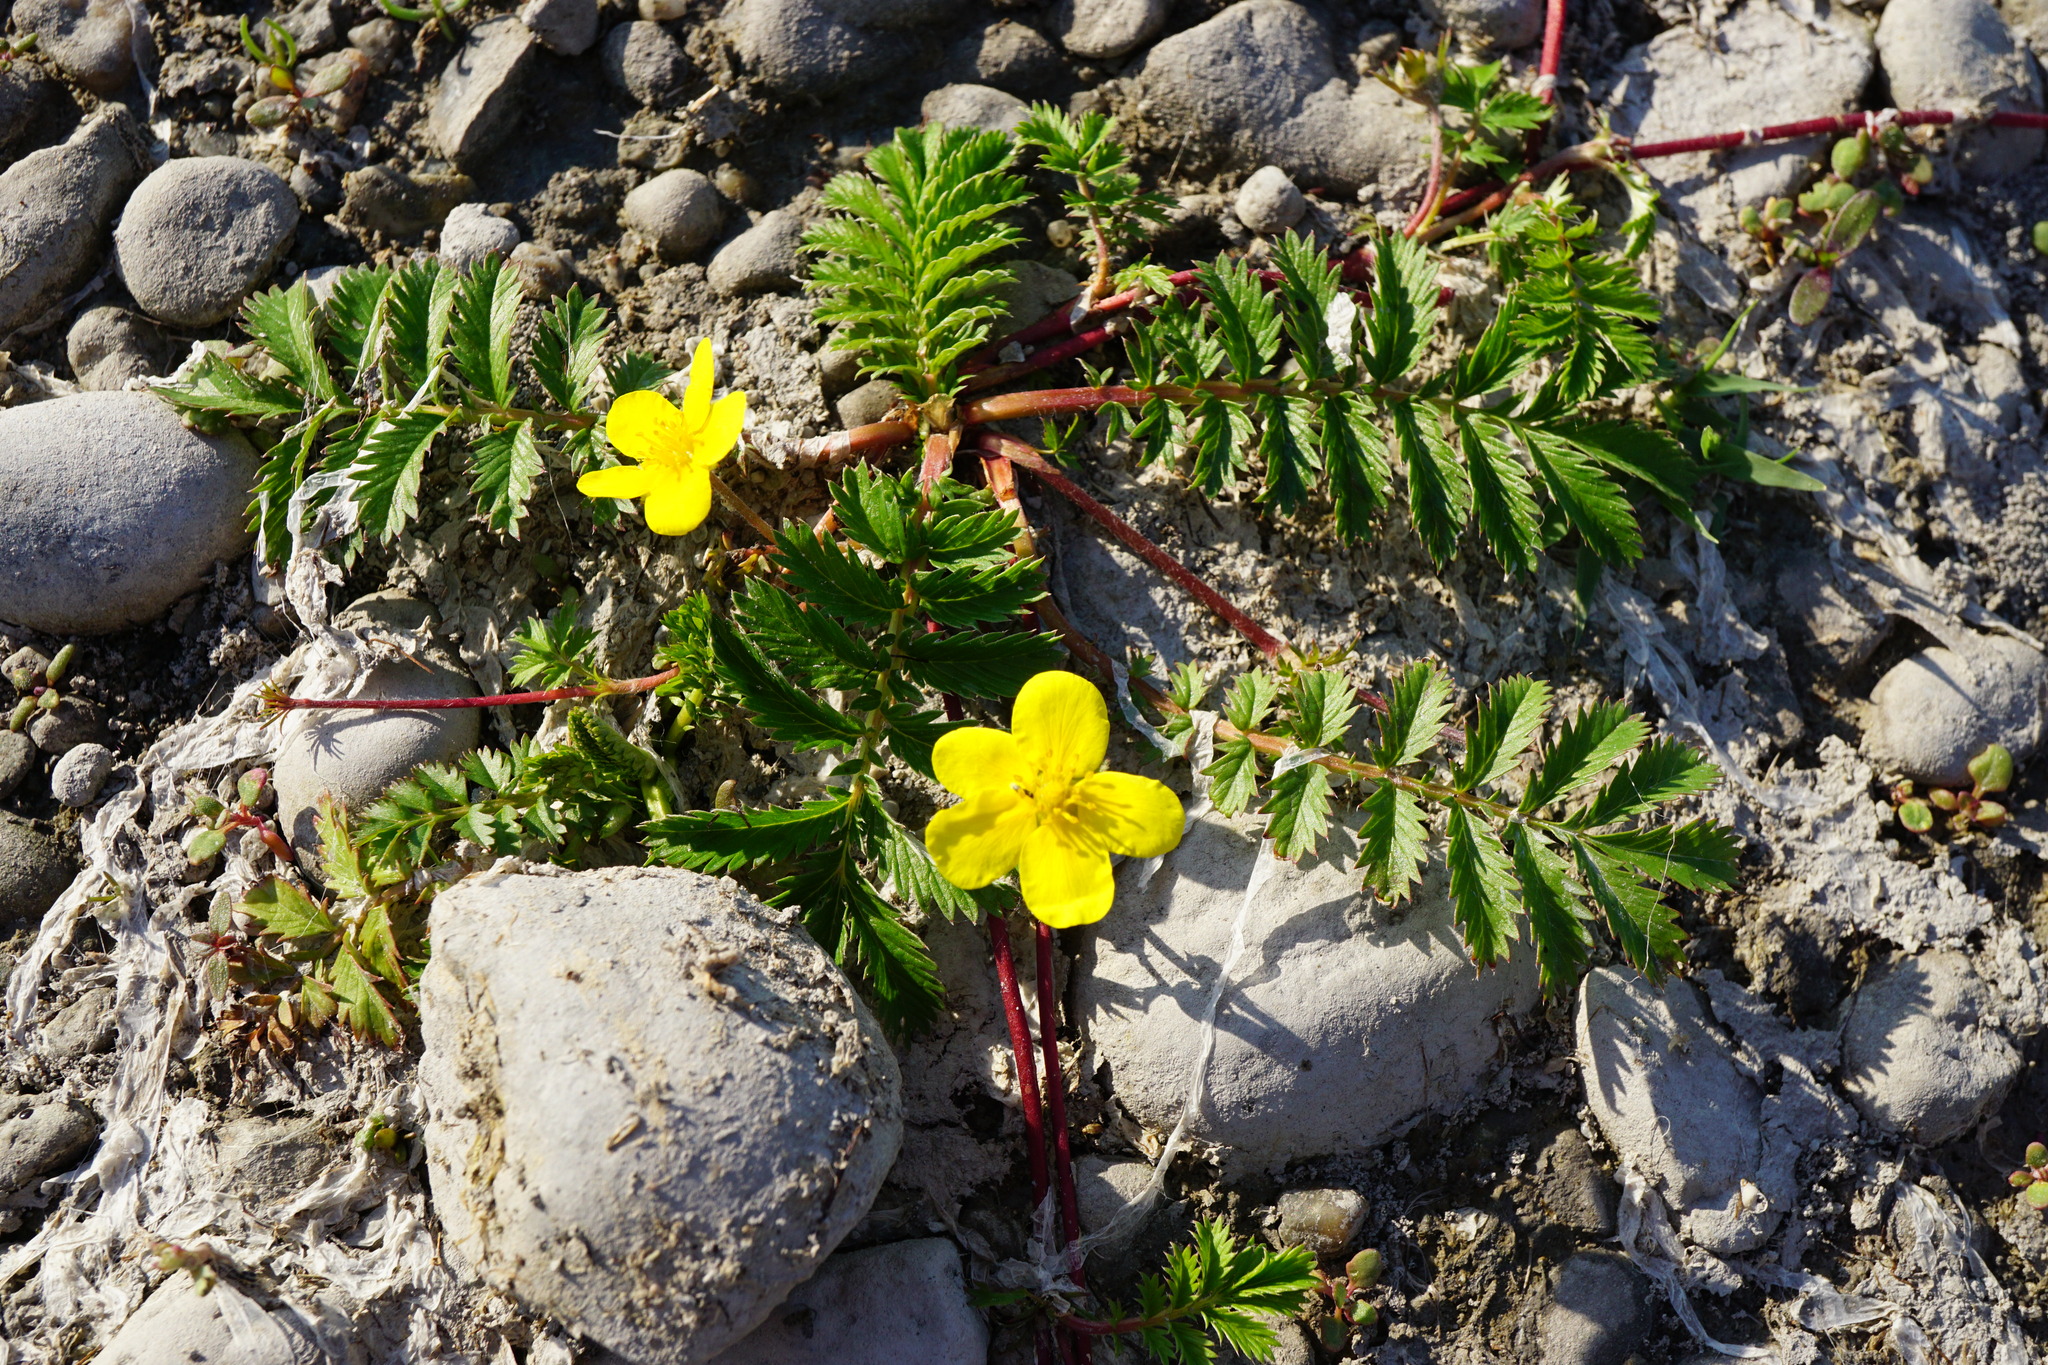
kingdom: Plantae
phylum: Tracheophyta
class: Magnoliopsida
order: Rosales
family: Rosaceae
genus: Argentina
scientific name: Argentina anserina
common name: Common silverweed
